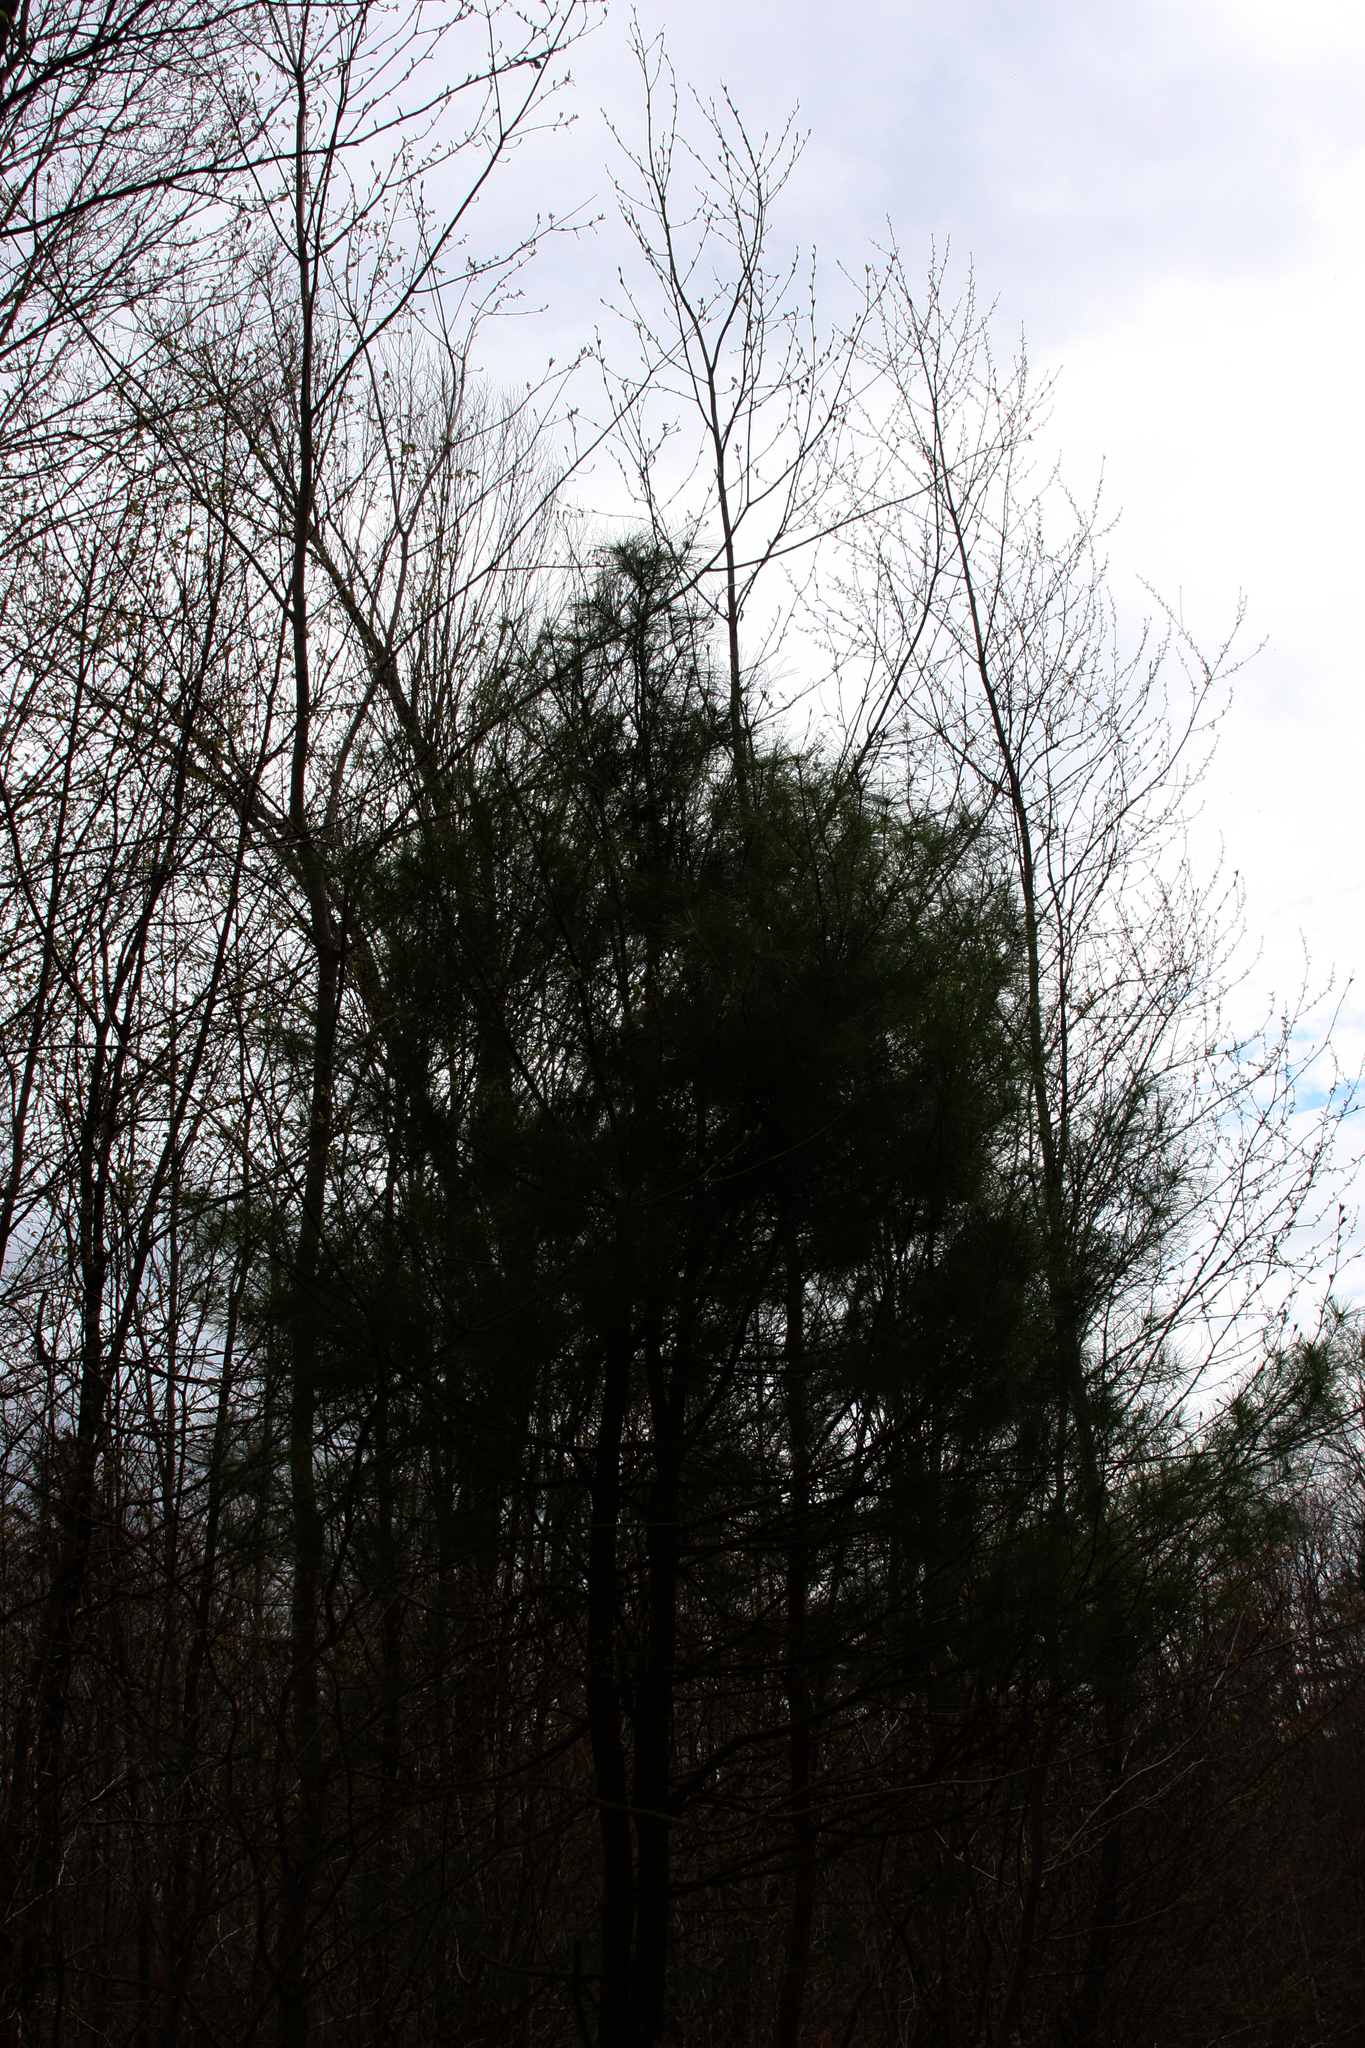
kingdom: Plantae
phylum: Tracheophyta
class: Pinopsida
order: Pinales
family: Pinaceae
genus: Pinus
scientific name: Pinus strobus
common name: Weymouth pine
